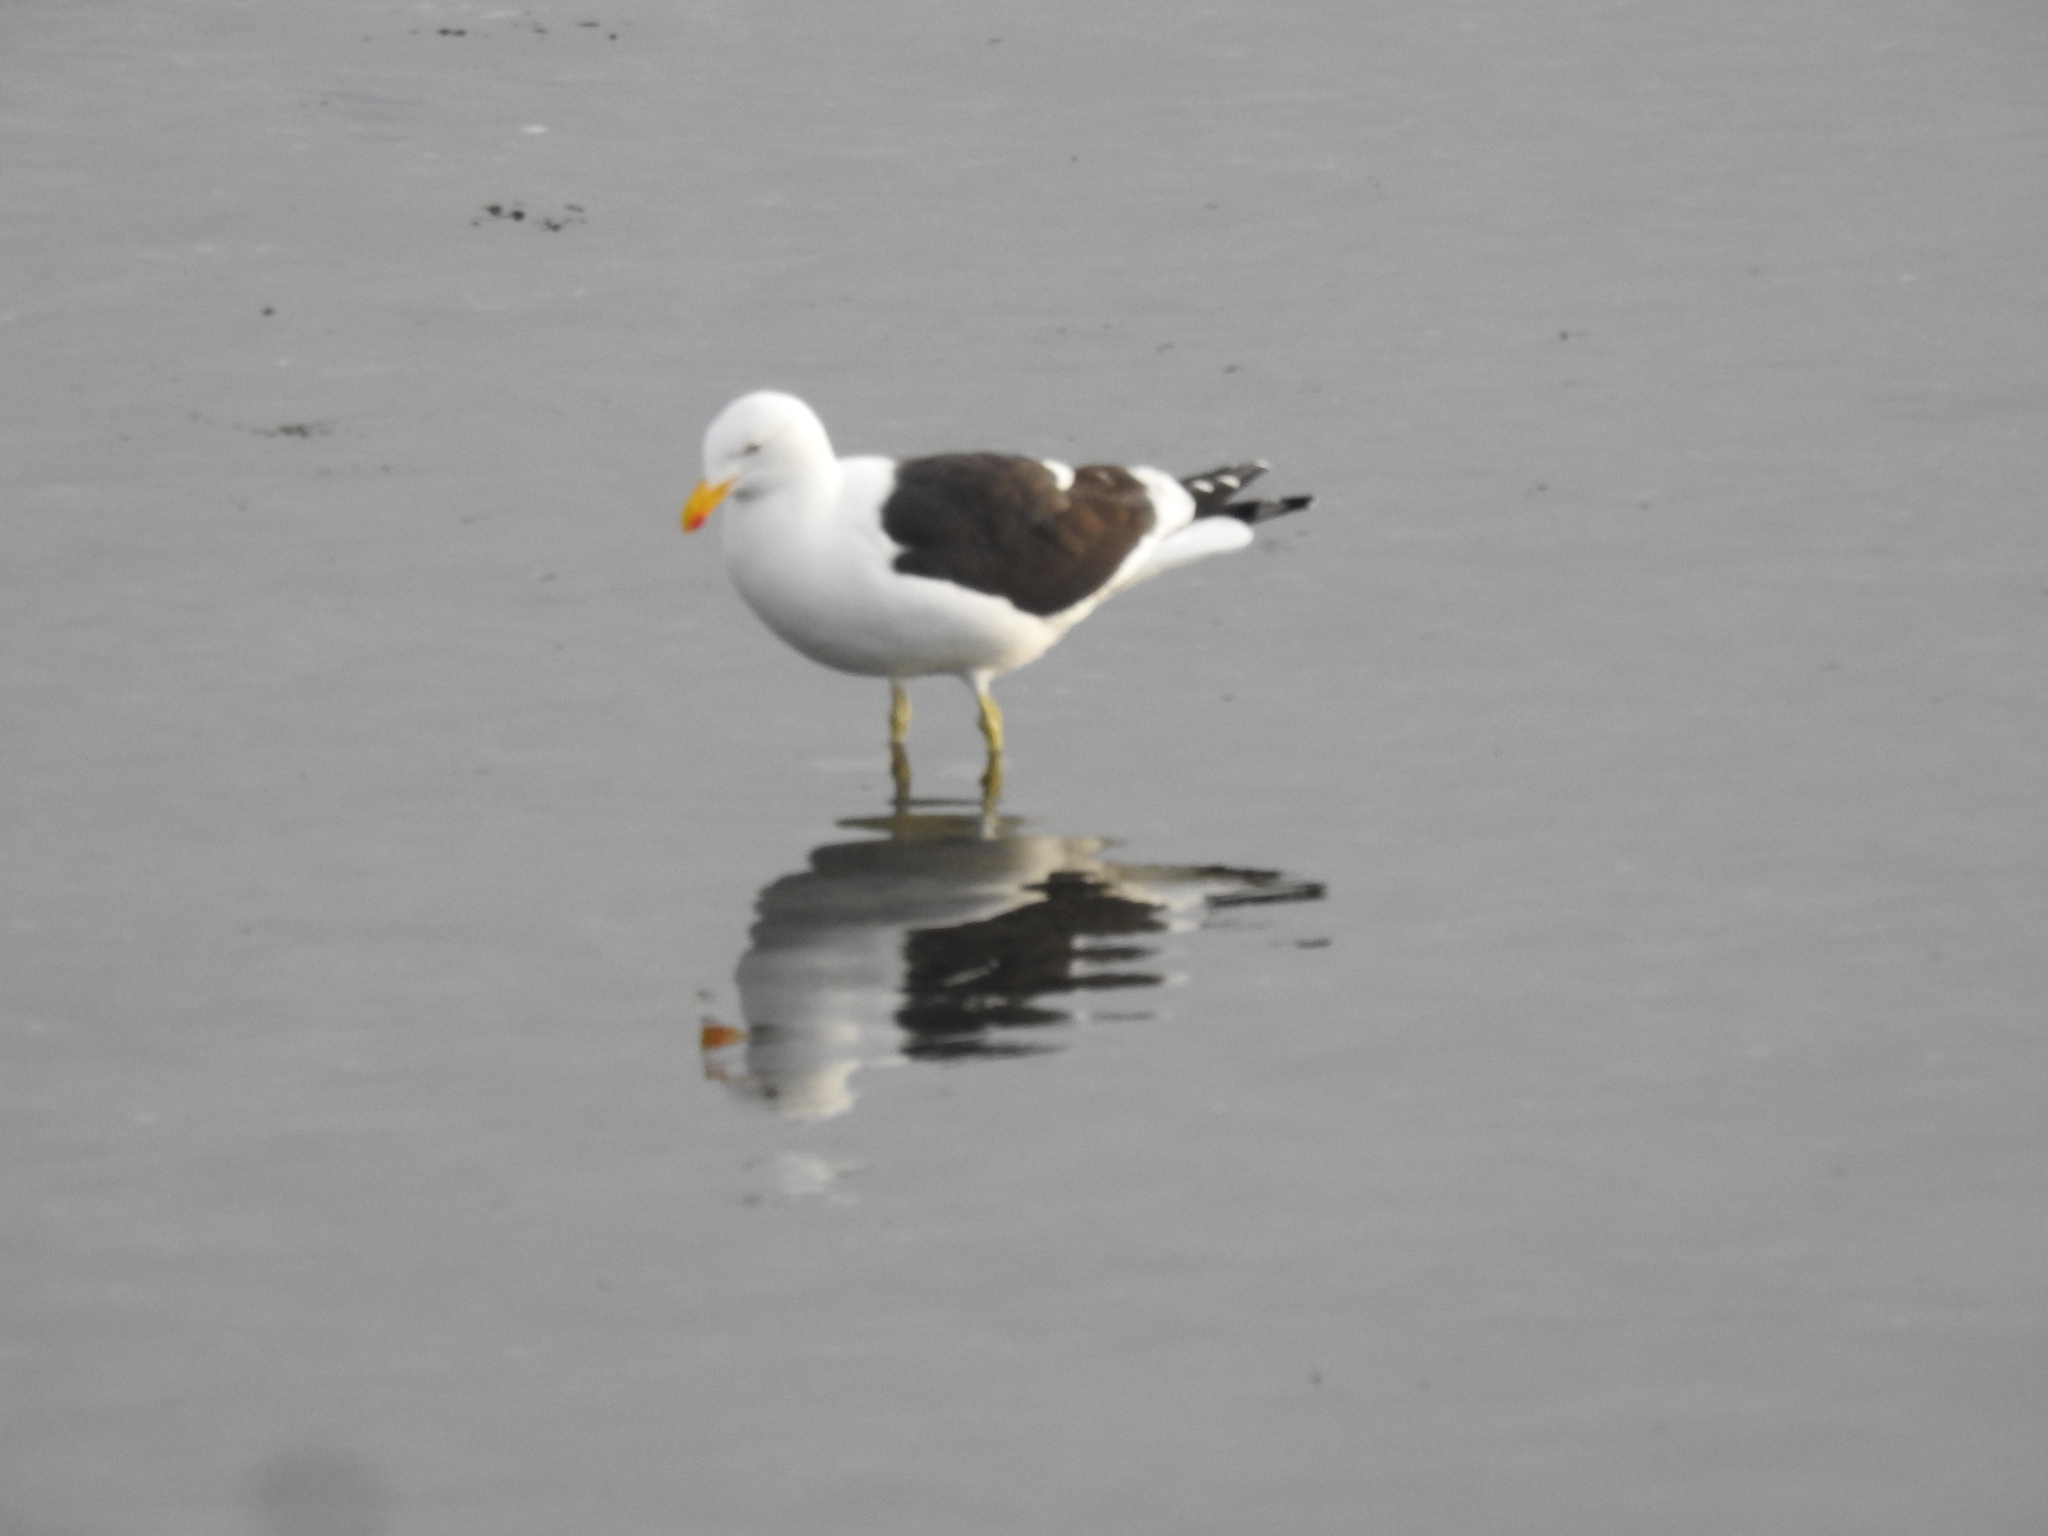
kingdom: Animalia
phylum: Chordata
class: Aves
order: Charadriiformes
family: Laridae
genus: Larus
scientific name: Larus dominicanus
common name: Kelp gull
